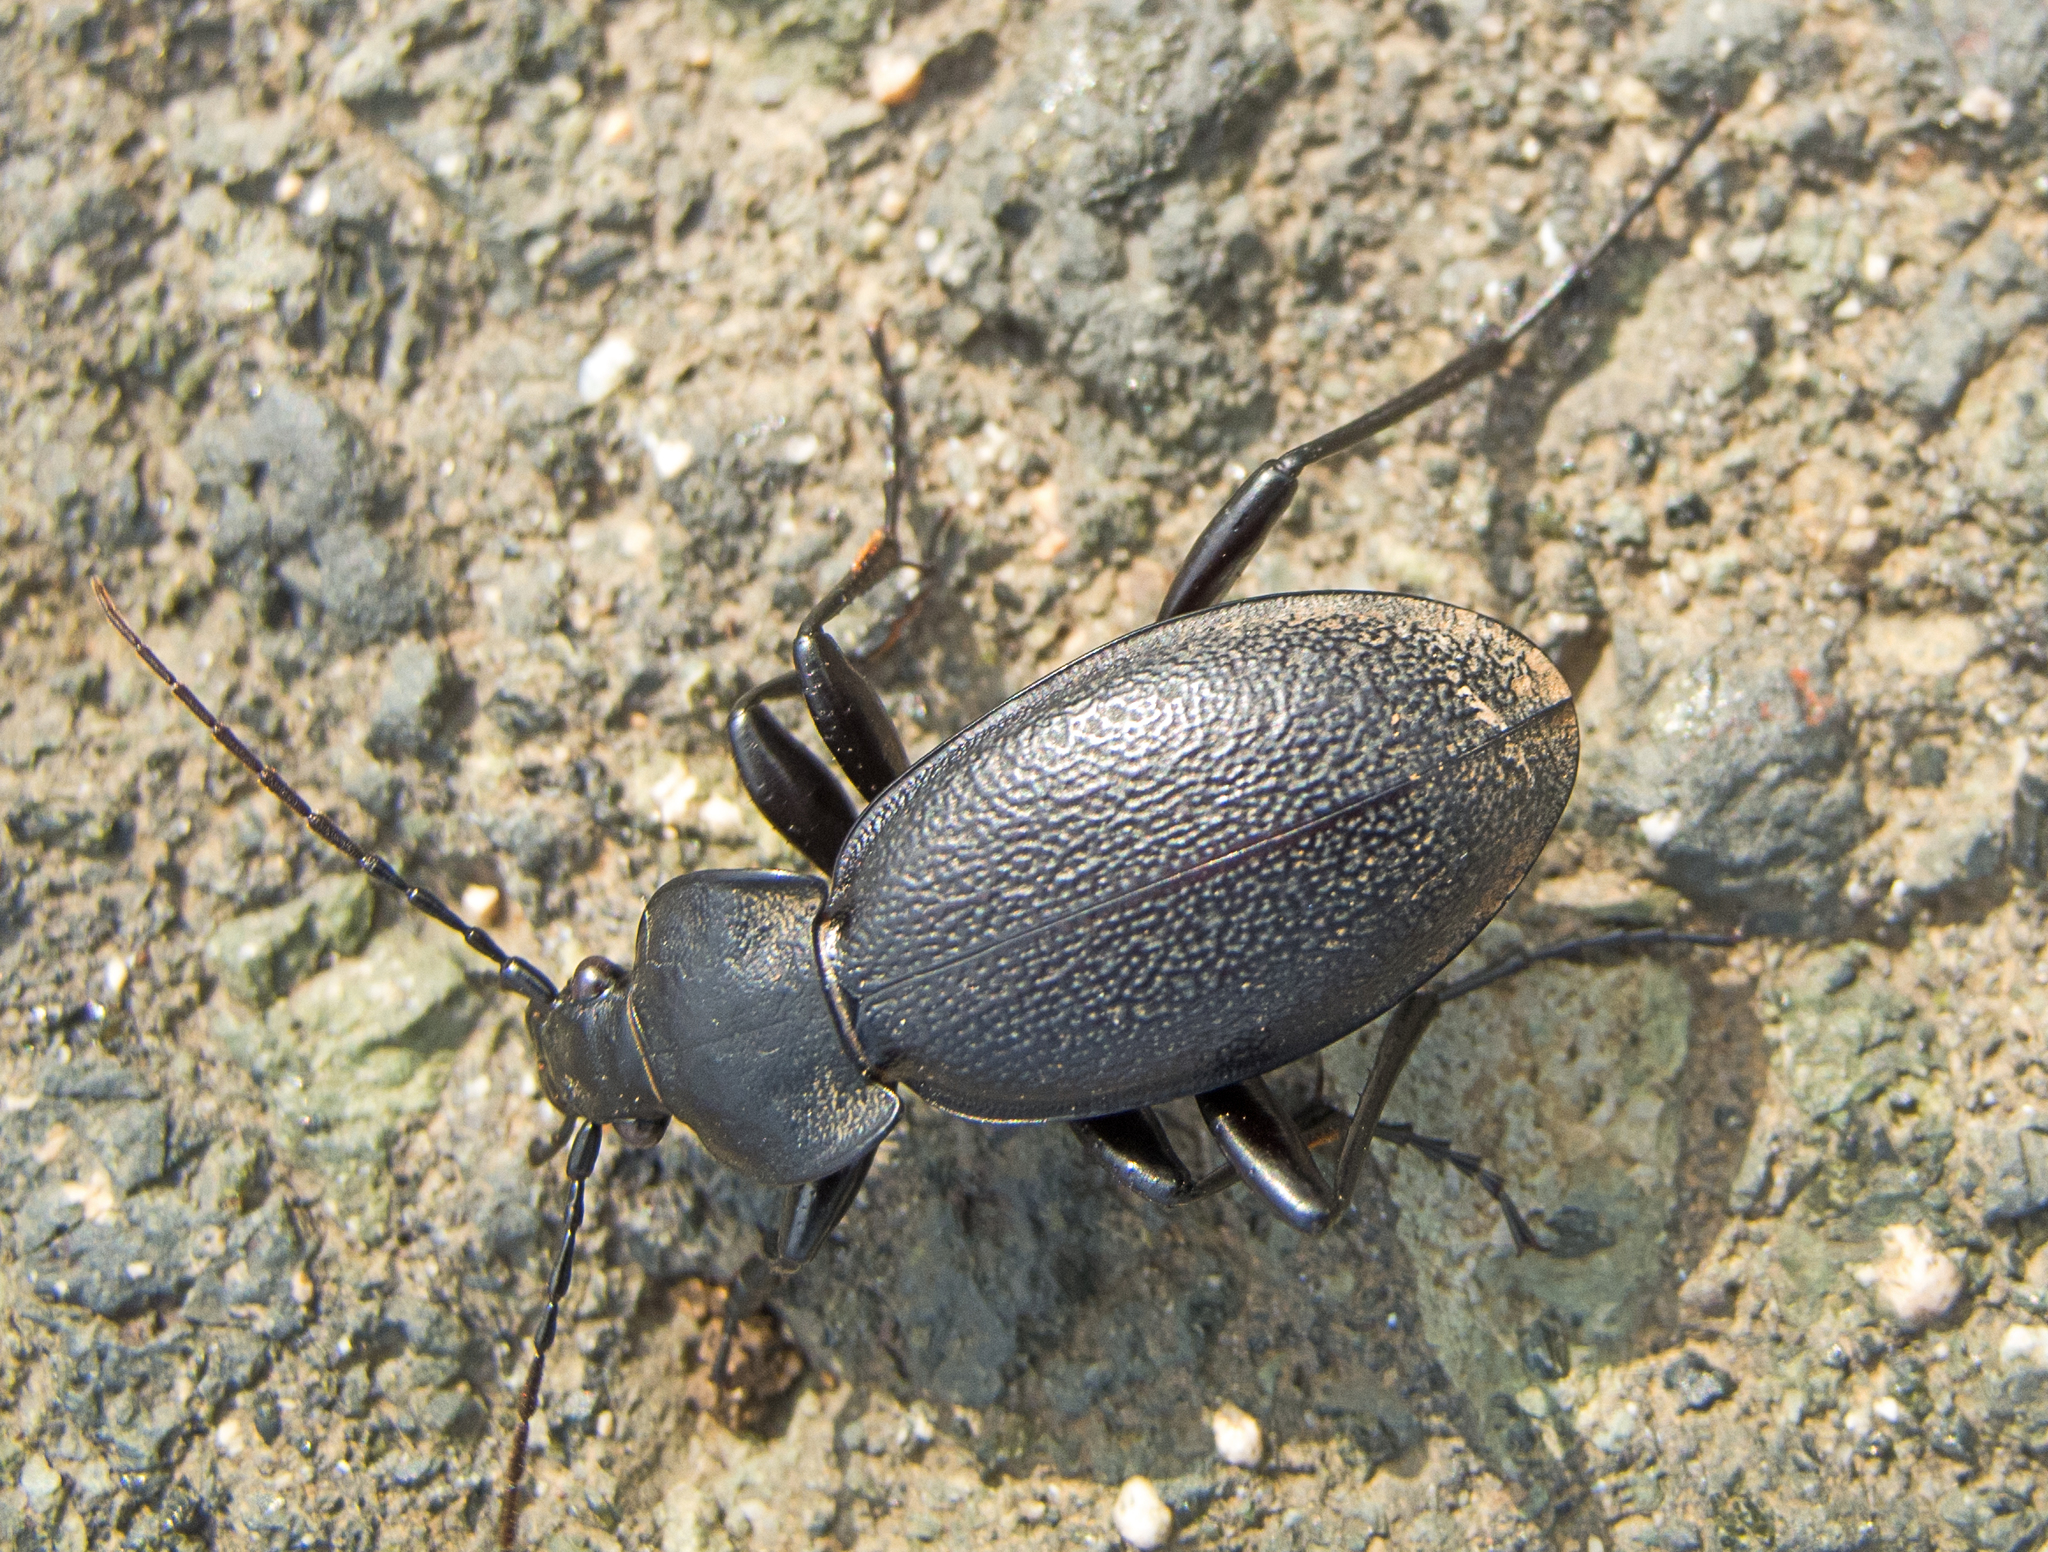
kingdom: Animalia
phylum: Arthropoda
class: Insecta
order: Coleoptera
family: Carabidae
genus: Carabus
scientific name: Carabus coriaceus
